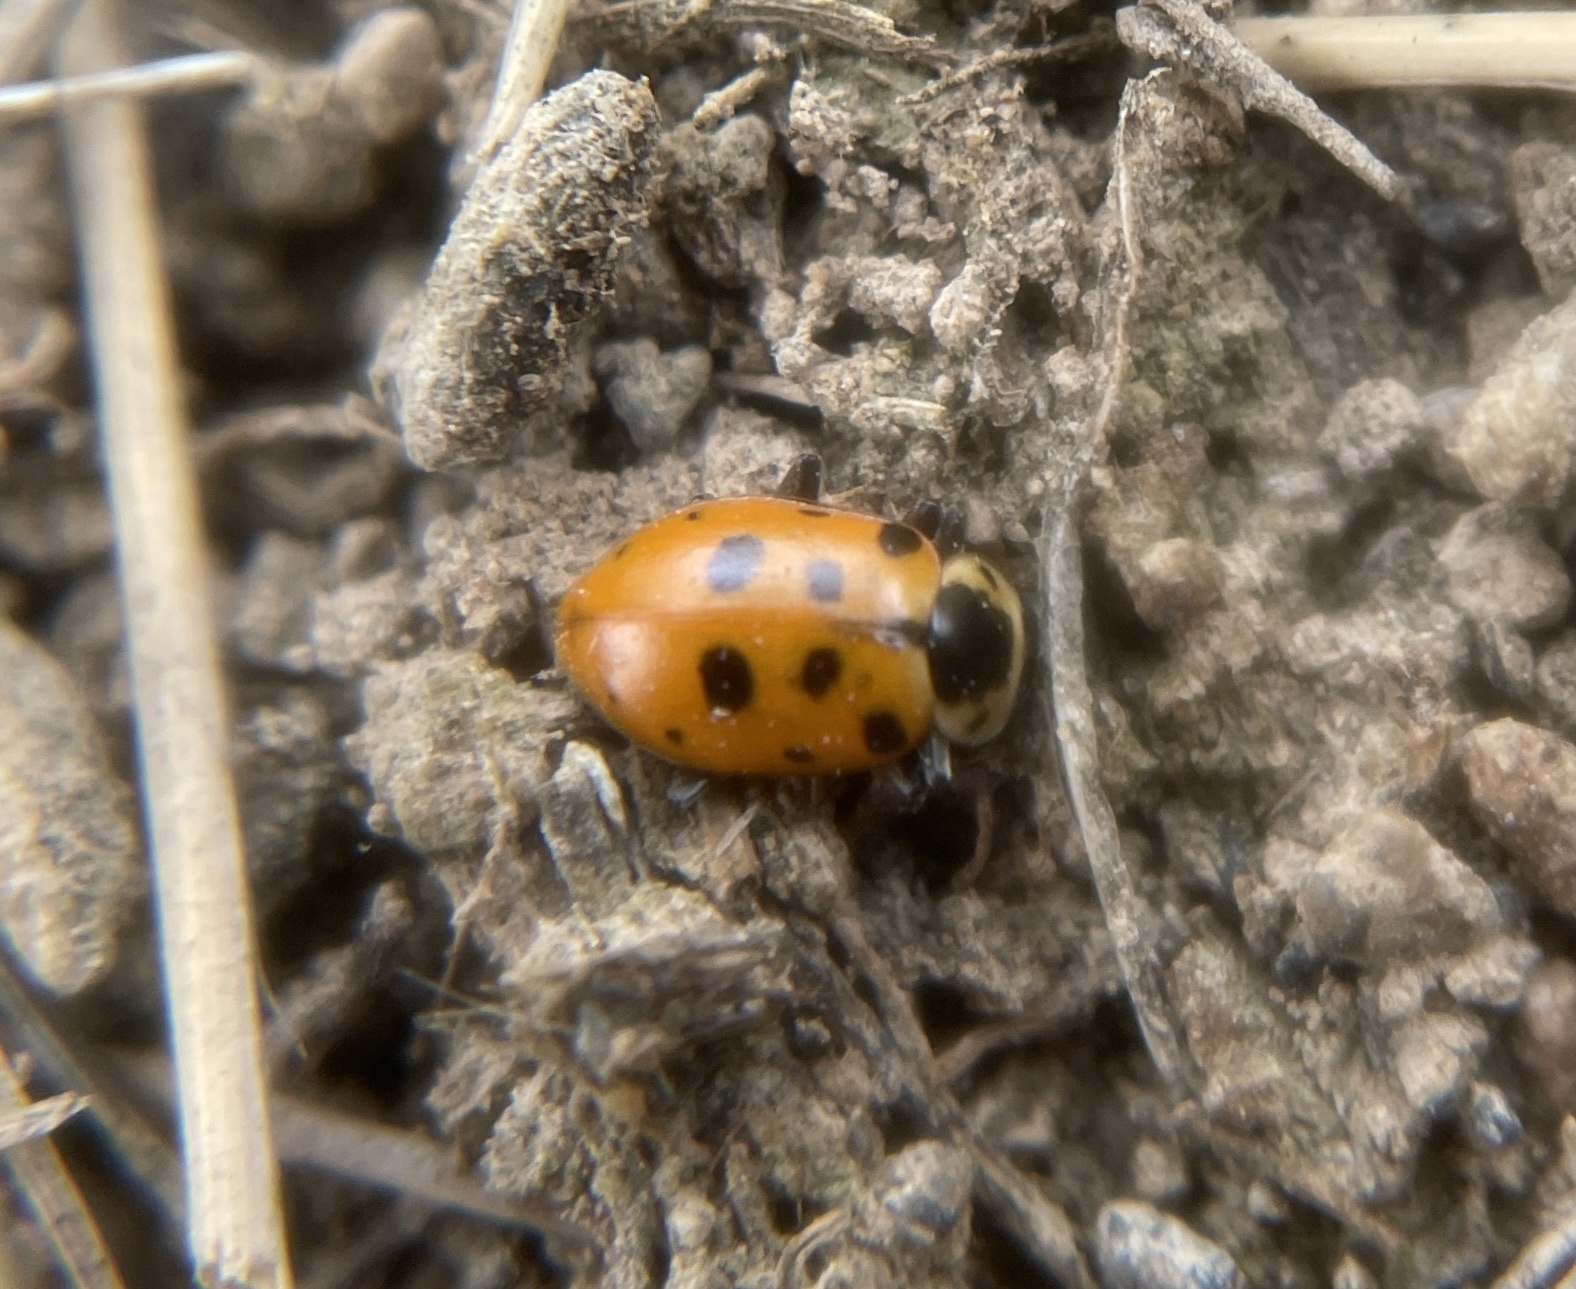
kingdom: Animalia
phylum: Arthropoda
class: Insecta
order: Coleoptera
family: Coccinellidae
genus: Hippodamia
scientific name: Hippodamia tredecimpunctata
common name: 13-spot ladybird
